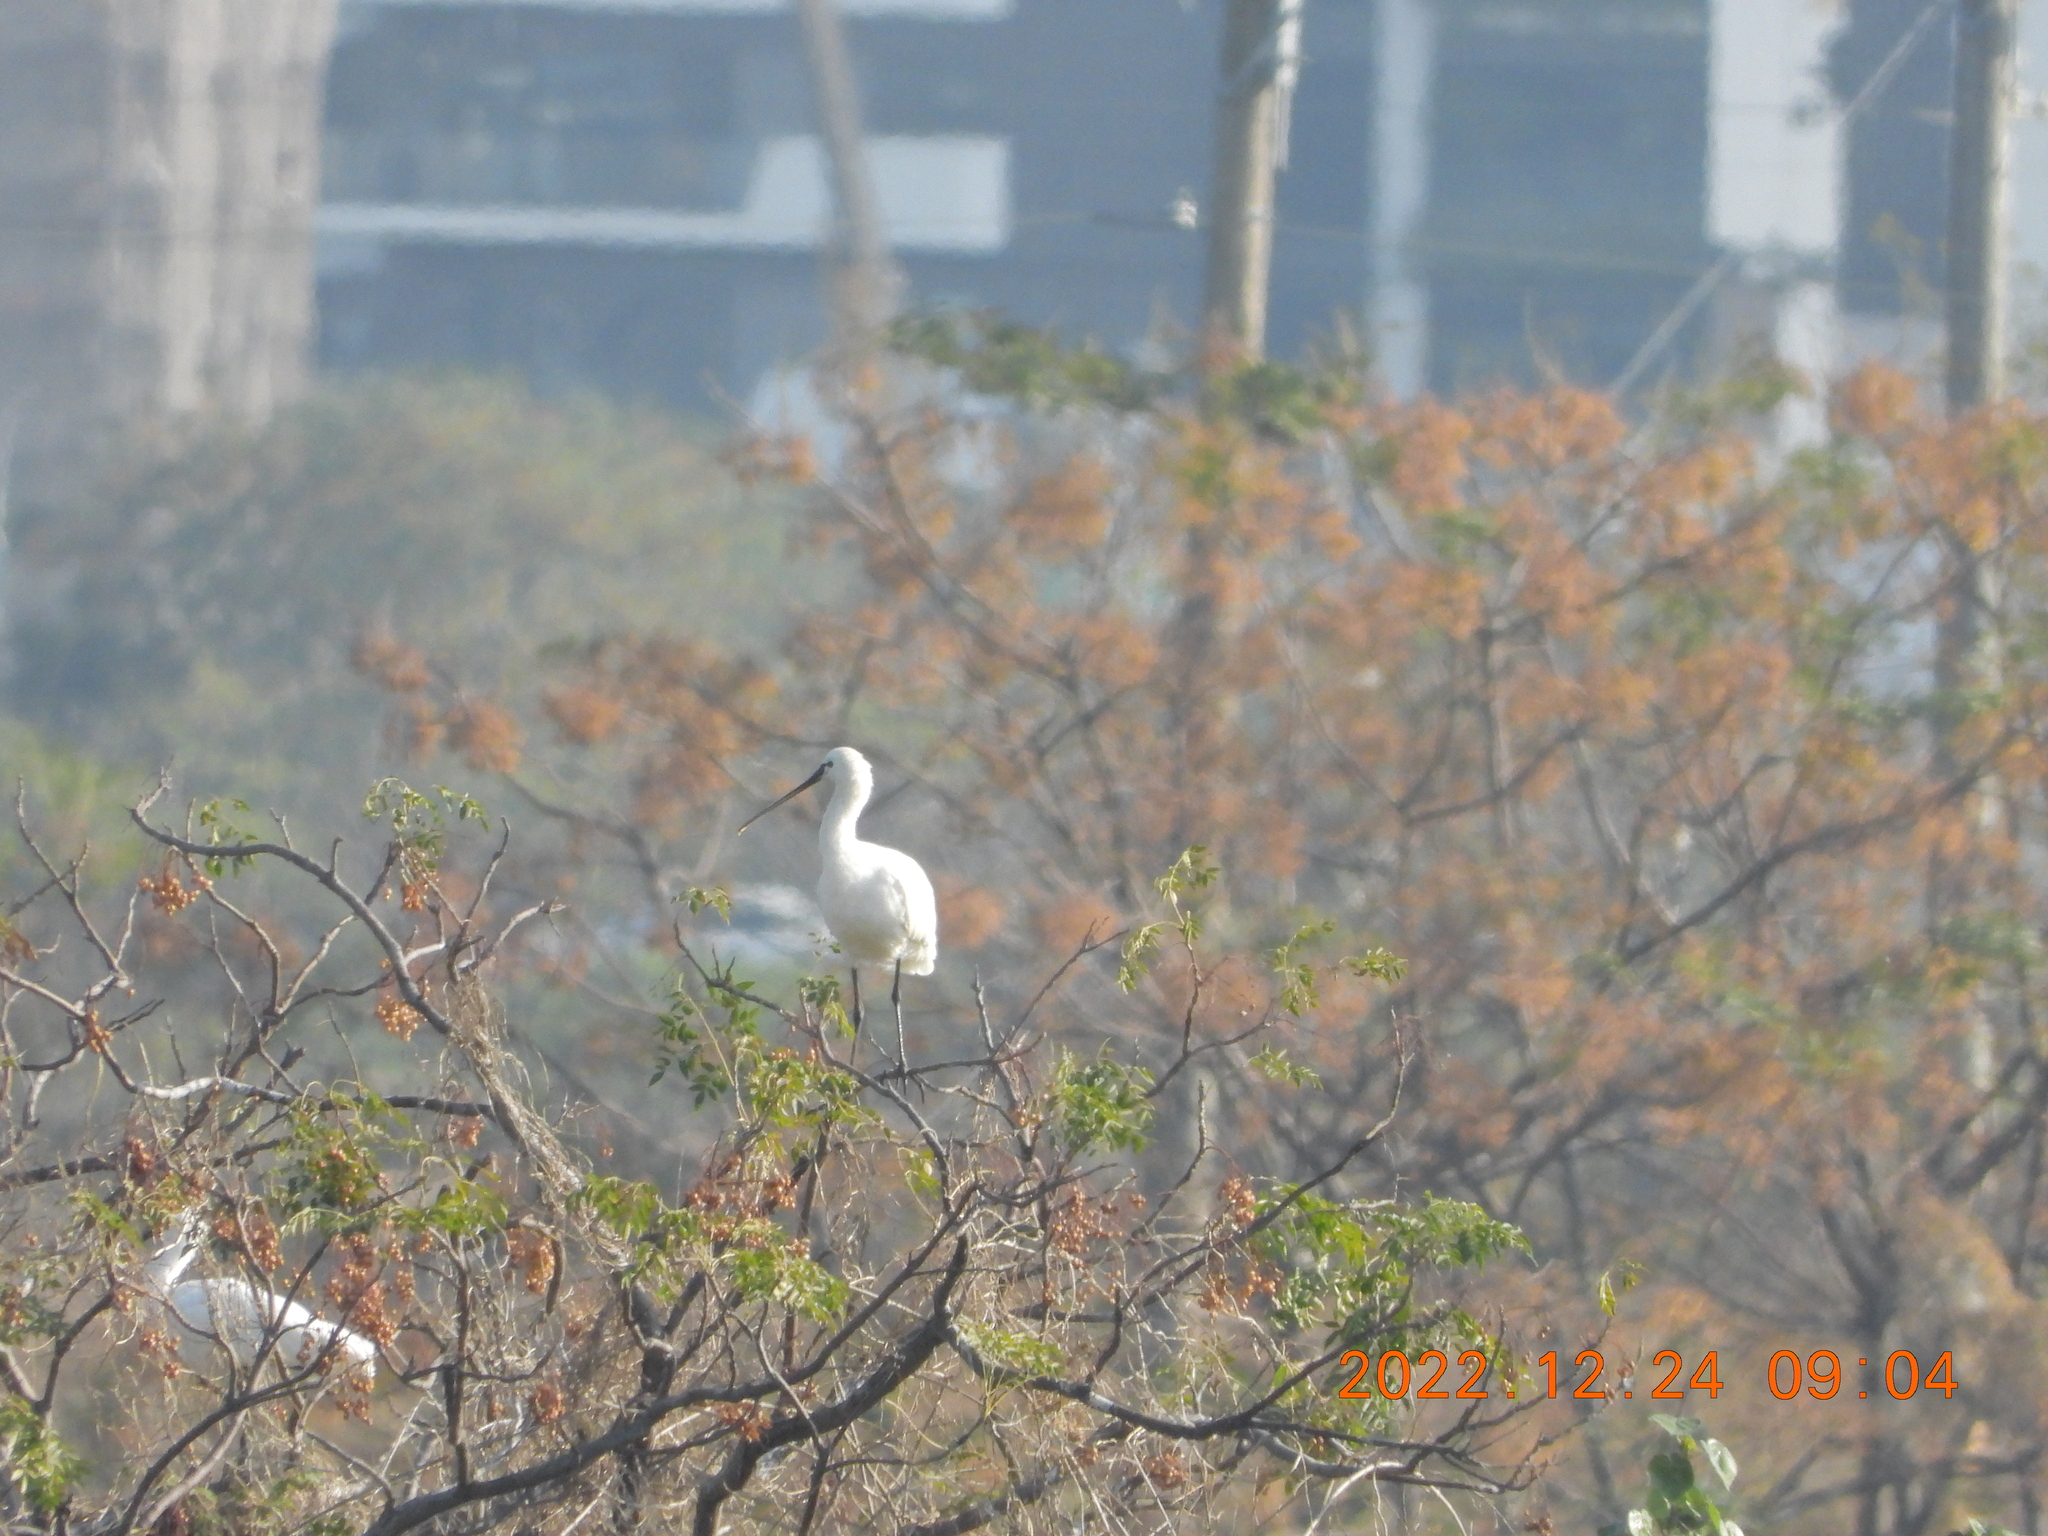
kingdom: Animalia
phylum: Chordata
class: Aves
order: Pelecaniformes
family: Threskiornithidae
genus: Platalea
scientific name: Platalea leucorodia
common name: Eurasian spoonbill
